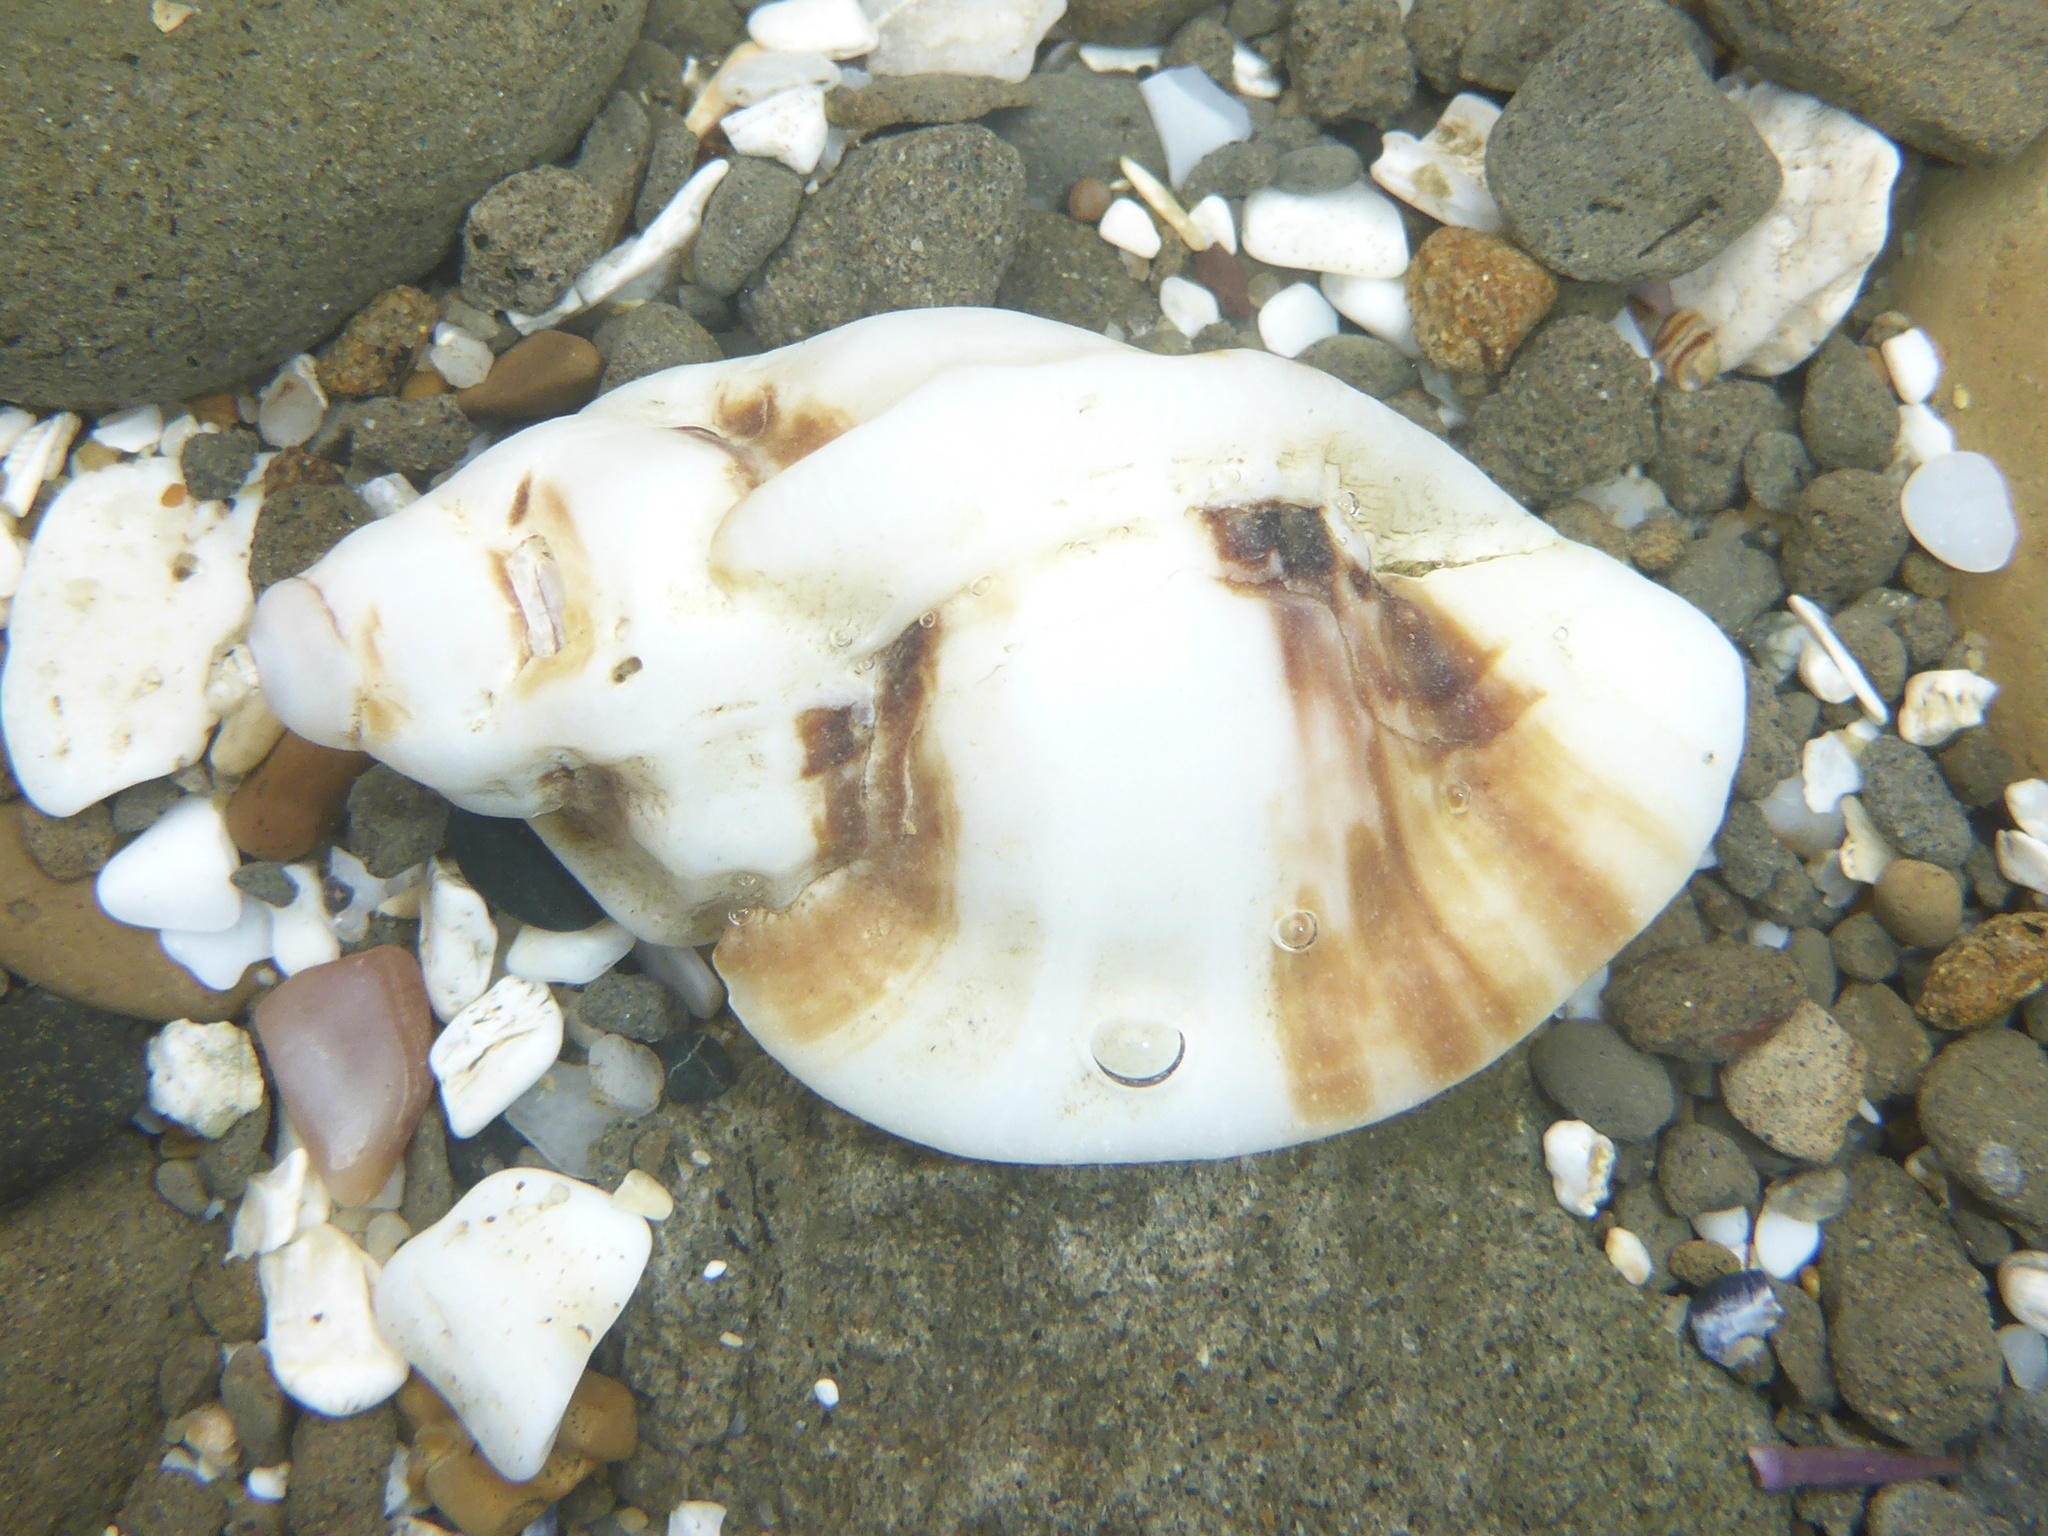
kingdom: Animalia
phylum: Mollusca
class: Gastropoda
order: Neogastropoda
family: Muricidae
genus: Ceratostoma
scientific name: Ceratostoma foliatum
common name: Foliate thorn purpura
